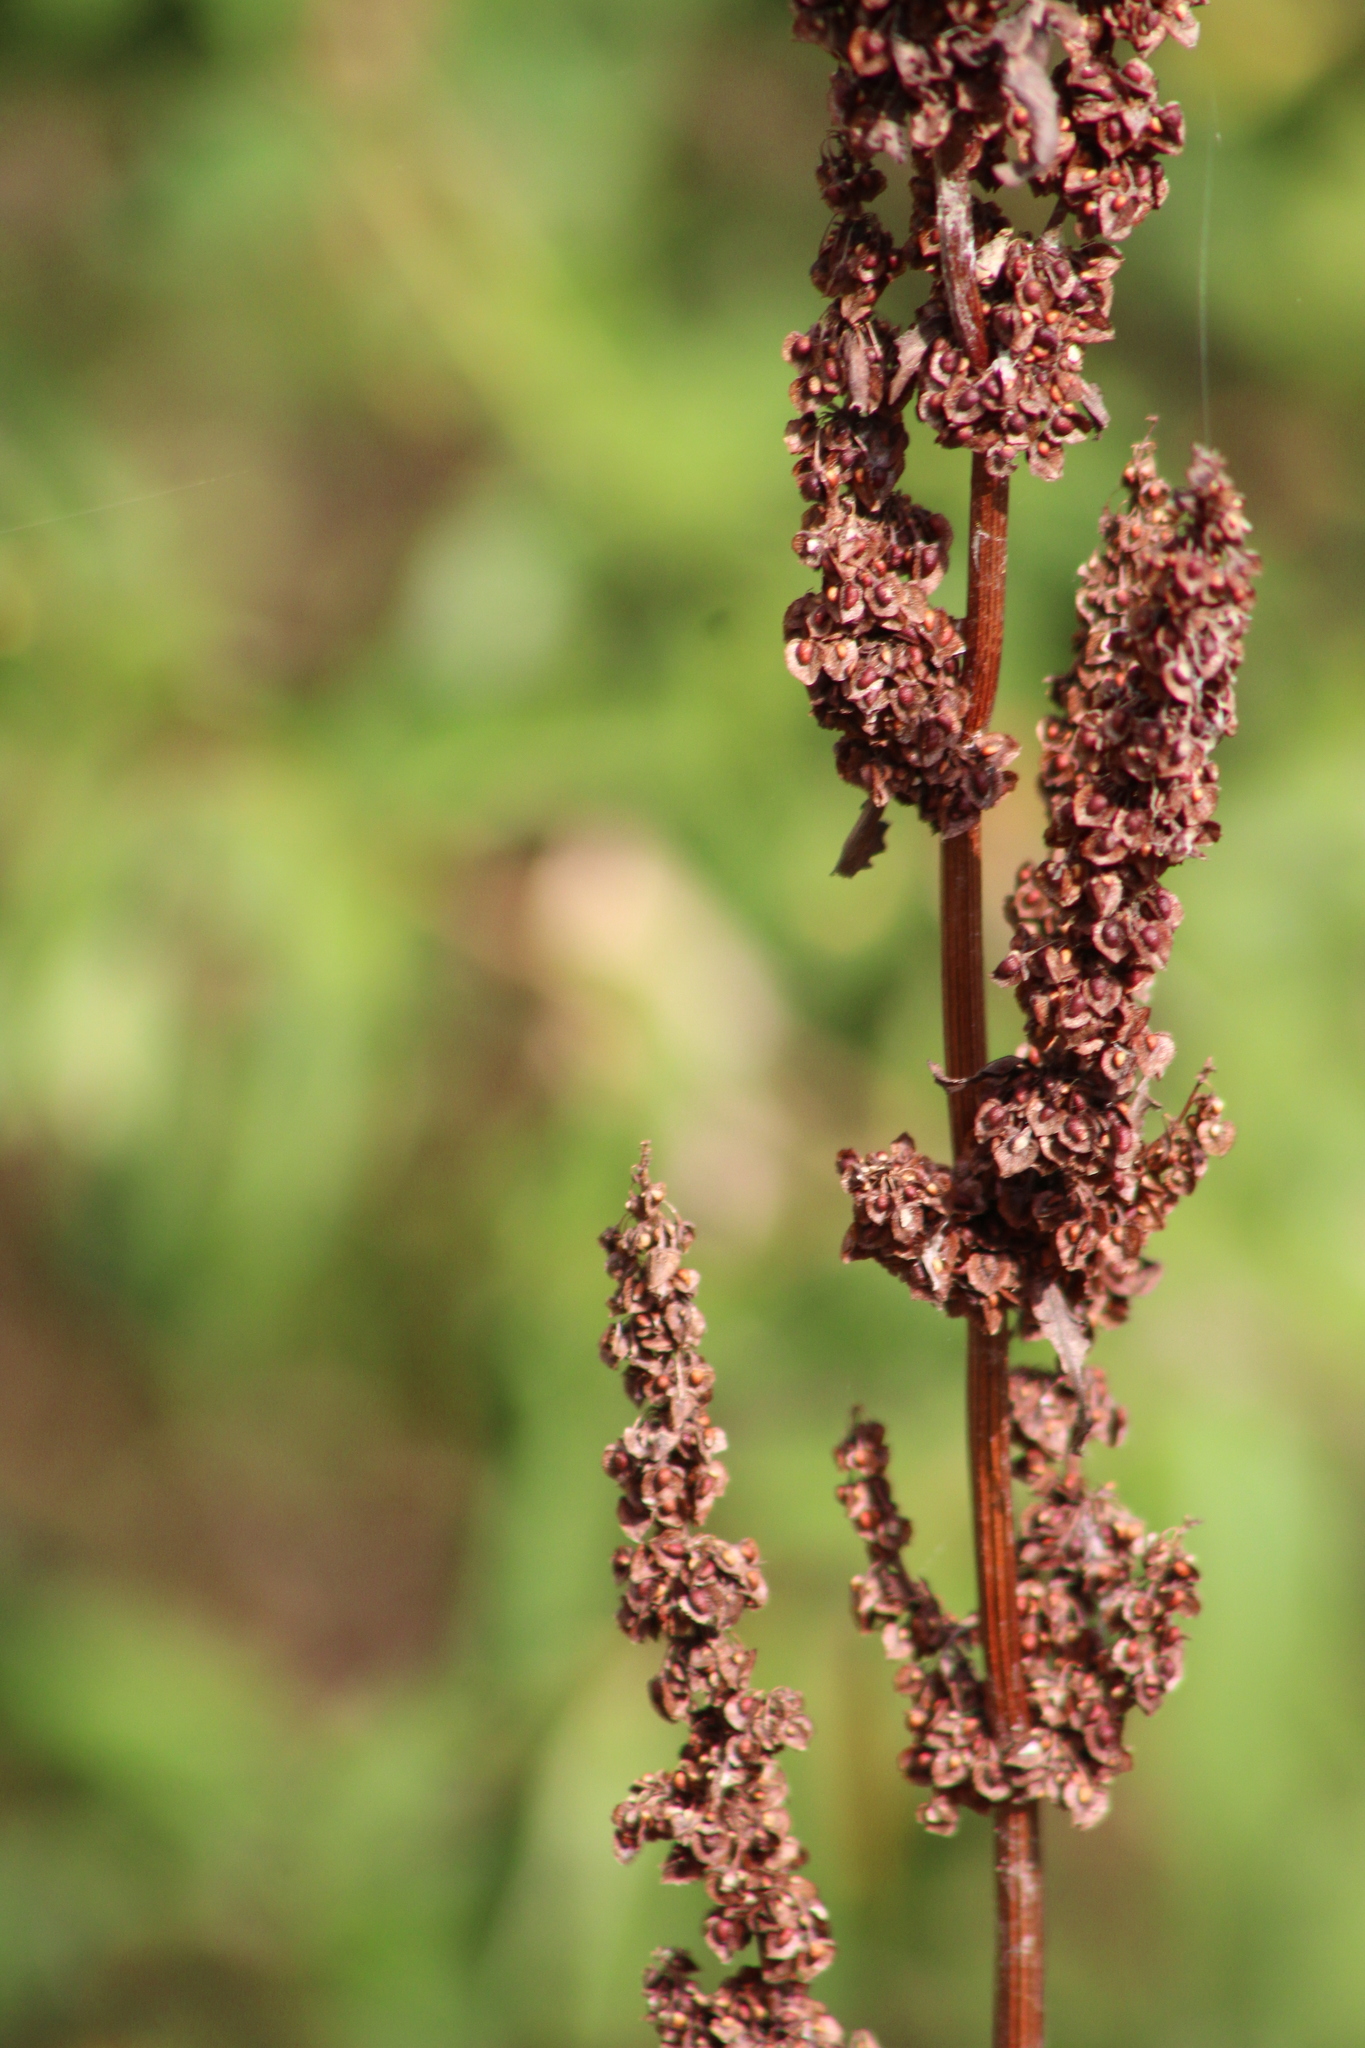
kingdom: Plantae
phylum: Tracheophyta
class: Magnoliopsida
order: Caryophyllales
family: Polygonaceae
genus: Rumex
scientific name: Rumex crispus
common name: Curled dock
